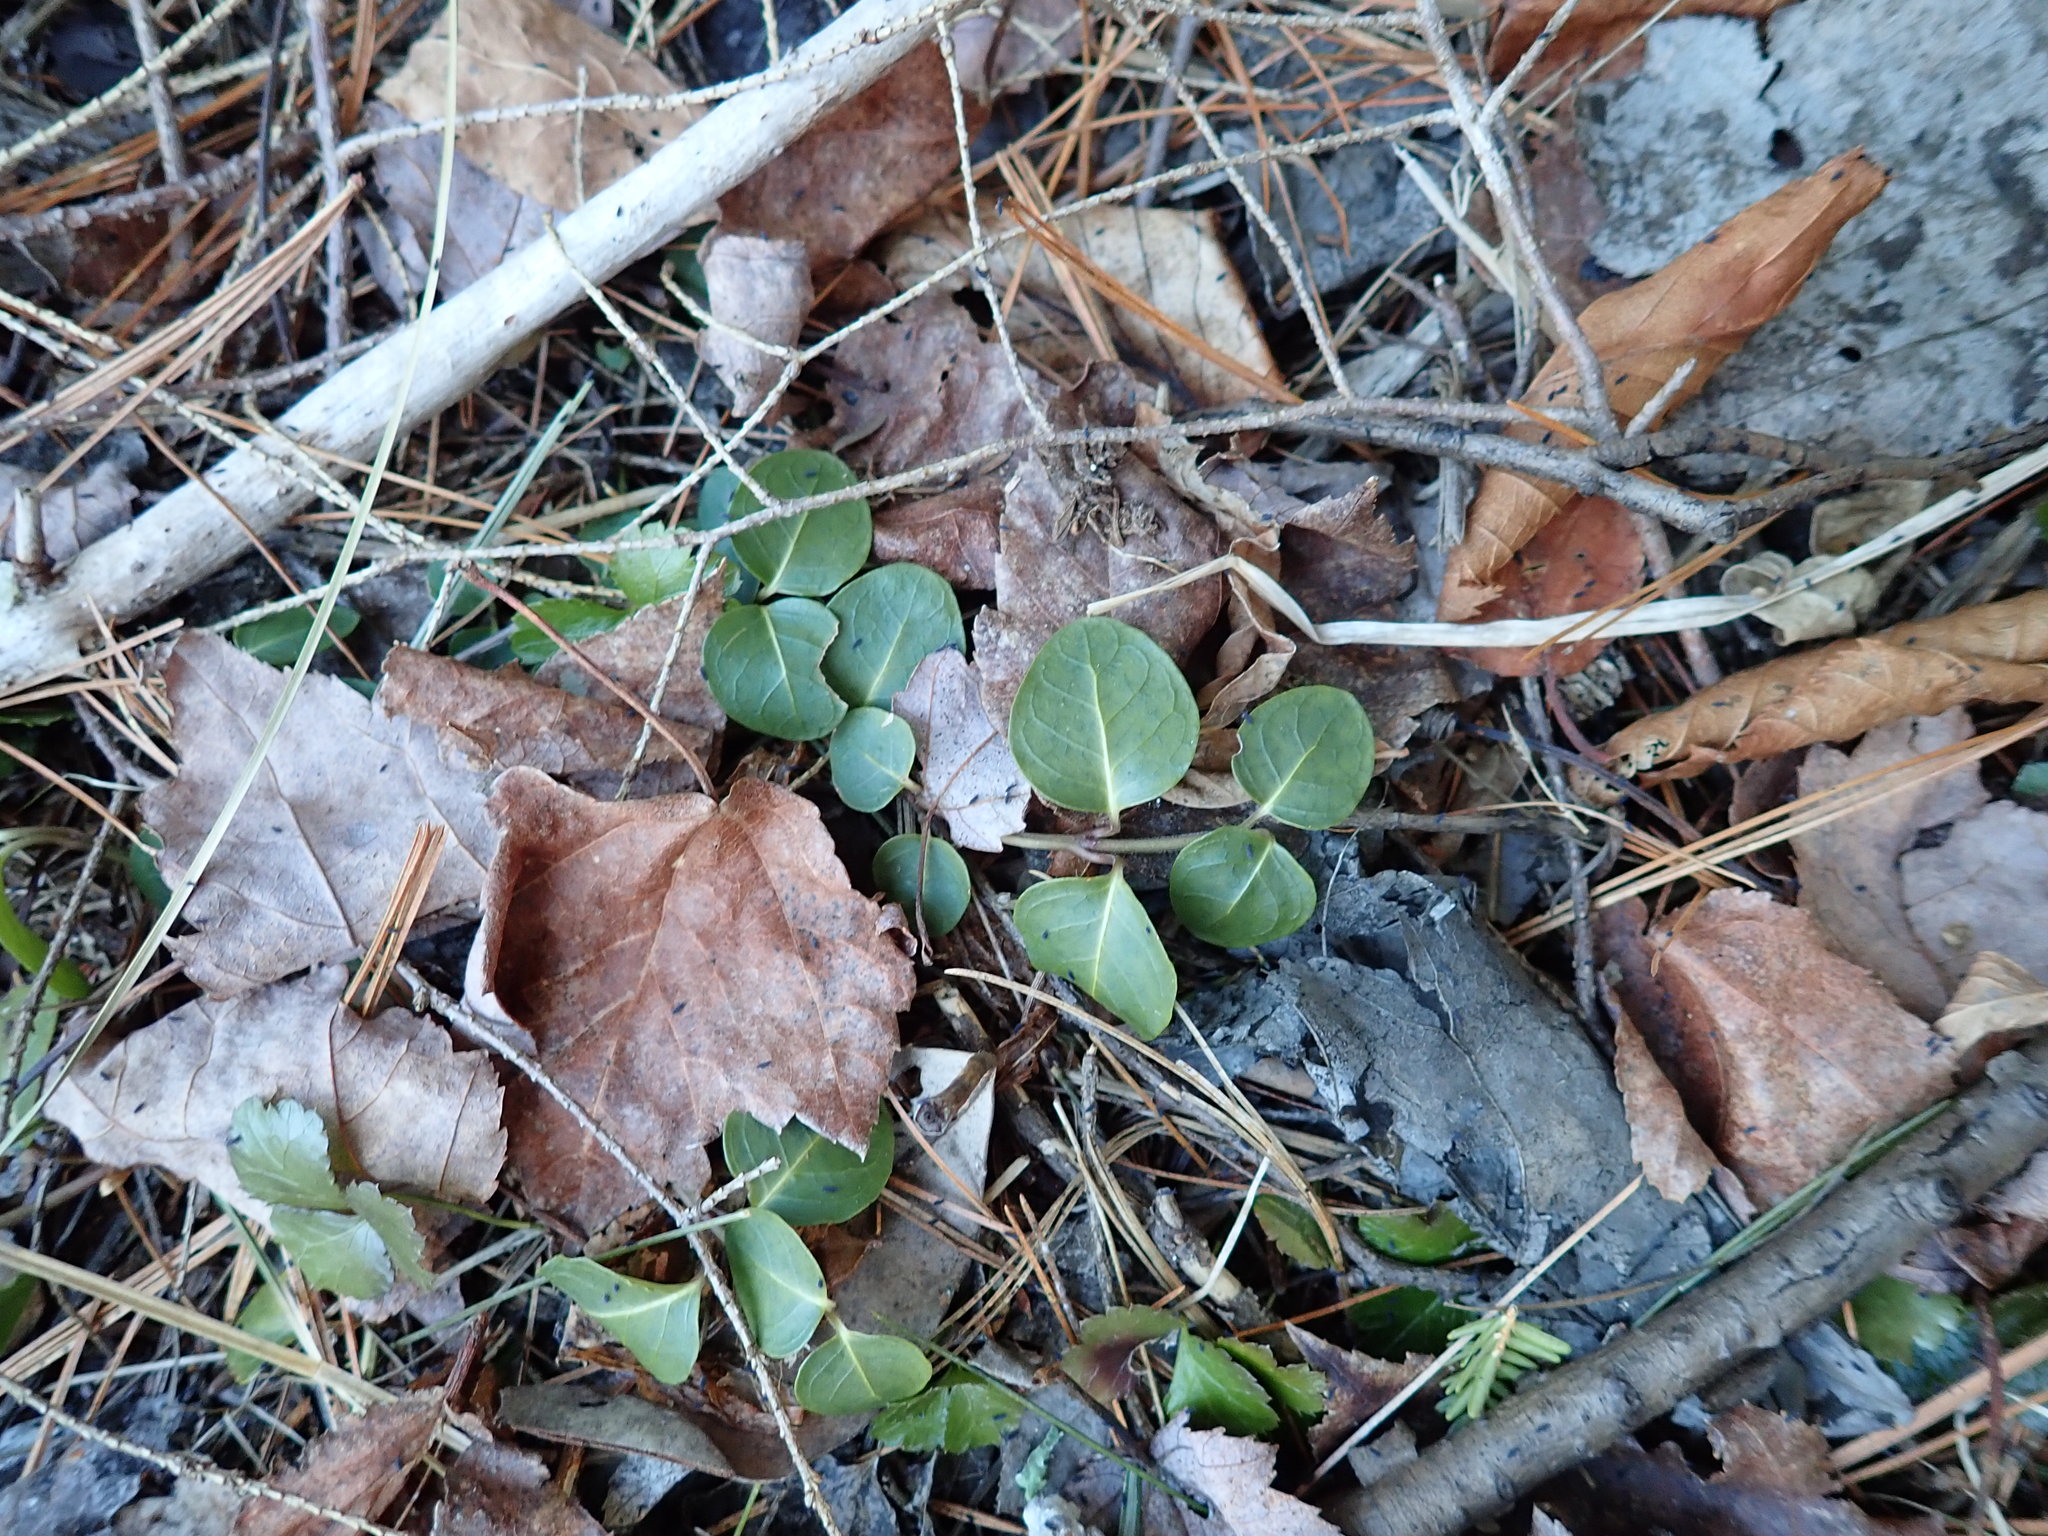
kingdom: Plantae
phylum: Tracheophyta
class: Magnoliopsida
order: Gentianales
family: Rubiaceae
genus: Mitchella
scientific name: Mitchella repens
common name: Partridge-berry
